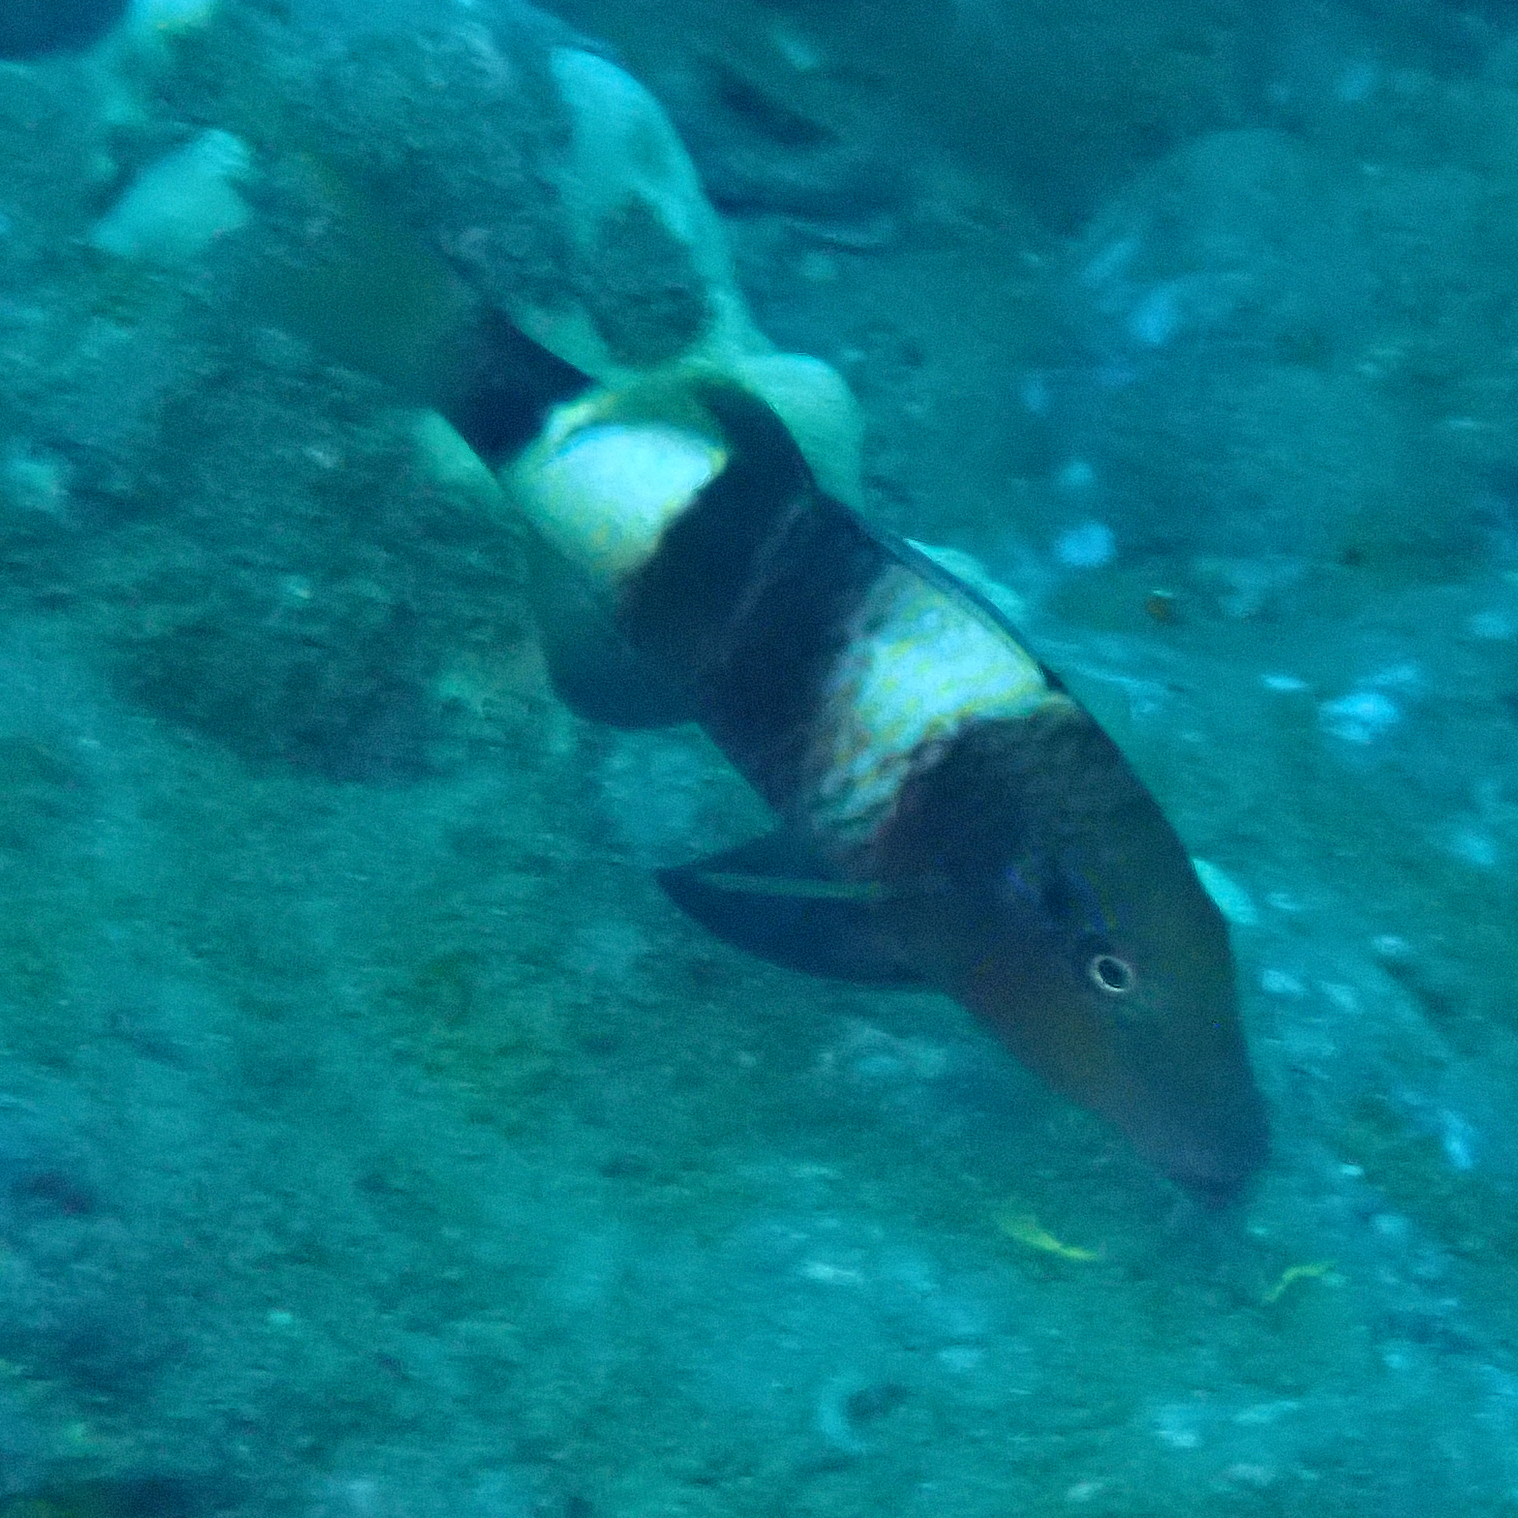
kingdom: Animalia
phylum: Chordata
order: Perciformes
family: Mullidae
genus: Parupeneus
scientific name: Parupeneus multifasciatus
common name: Manybar goatfish
